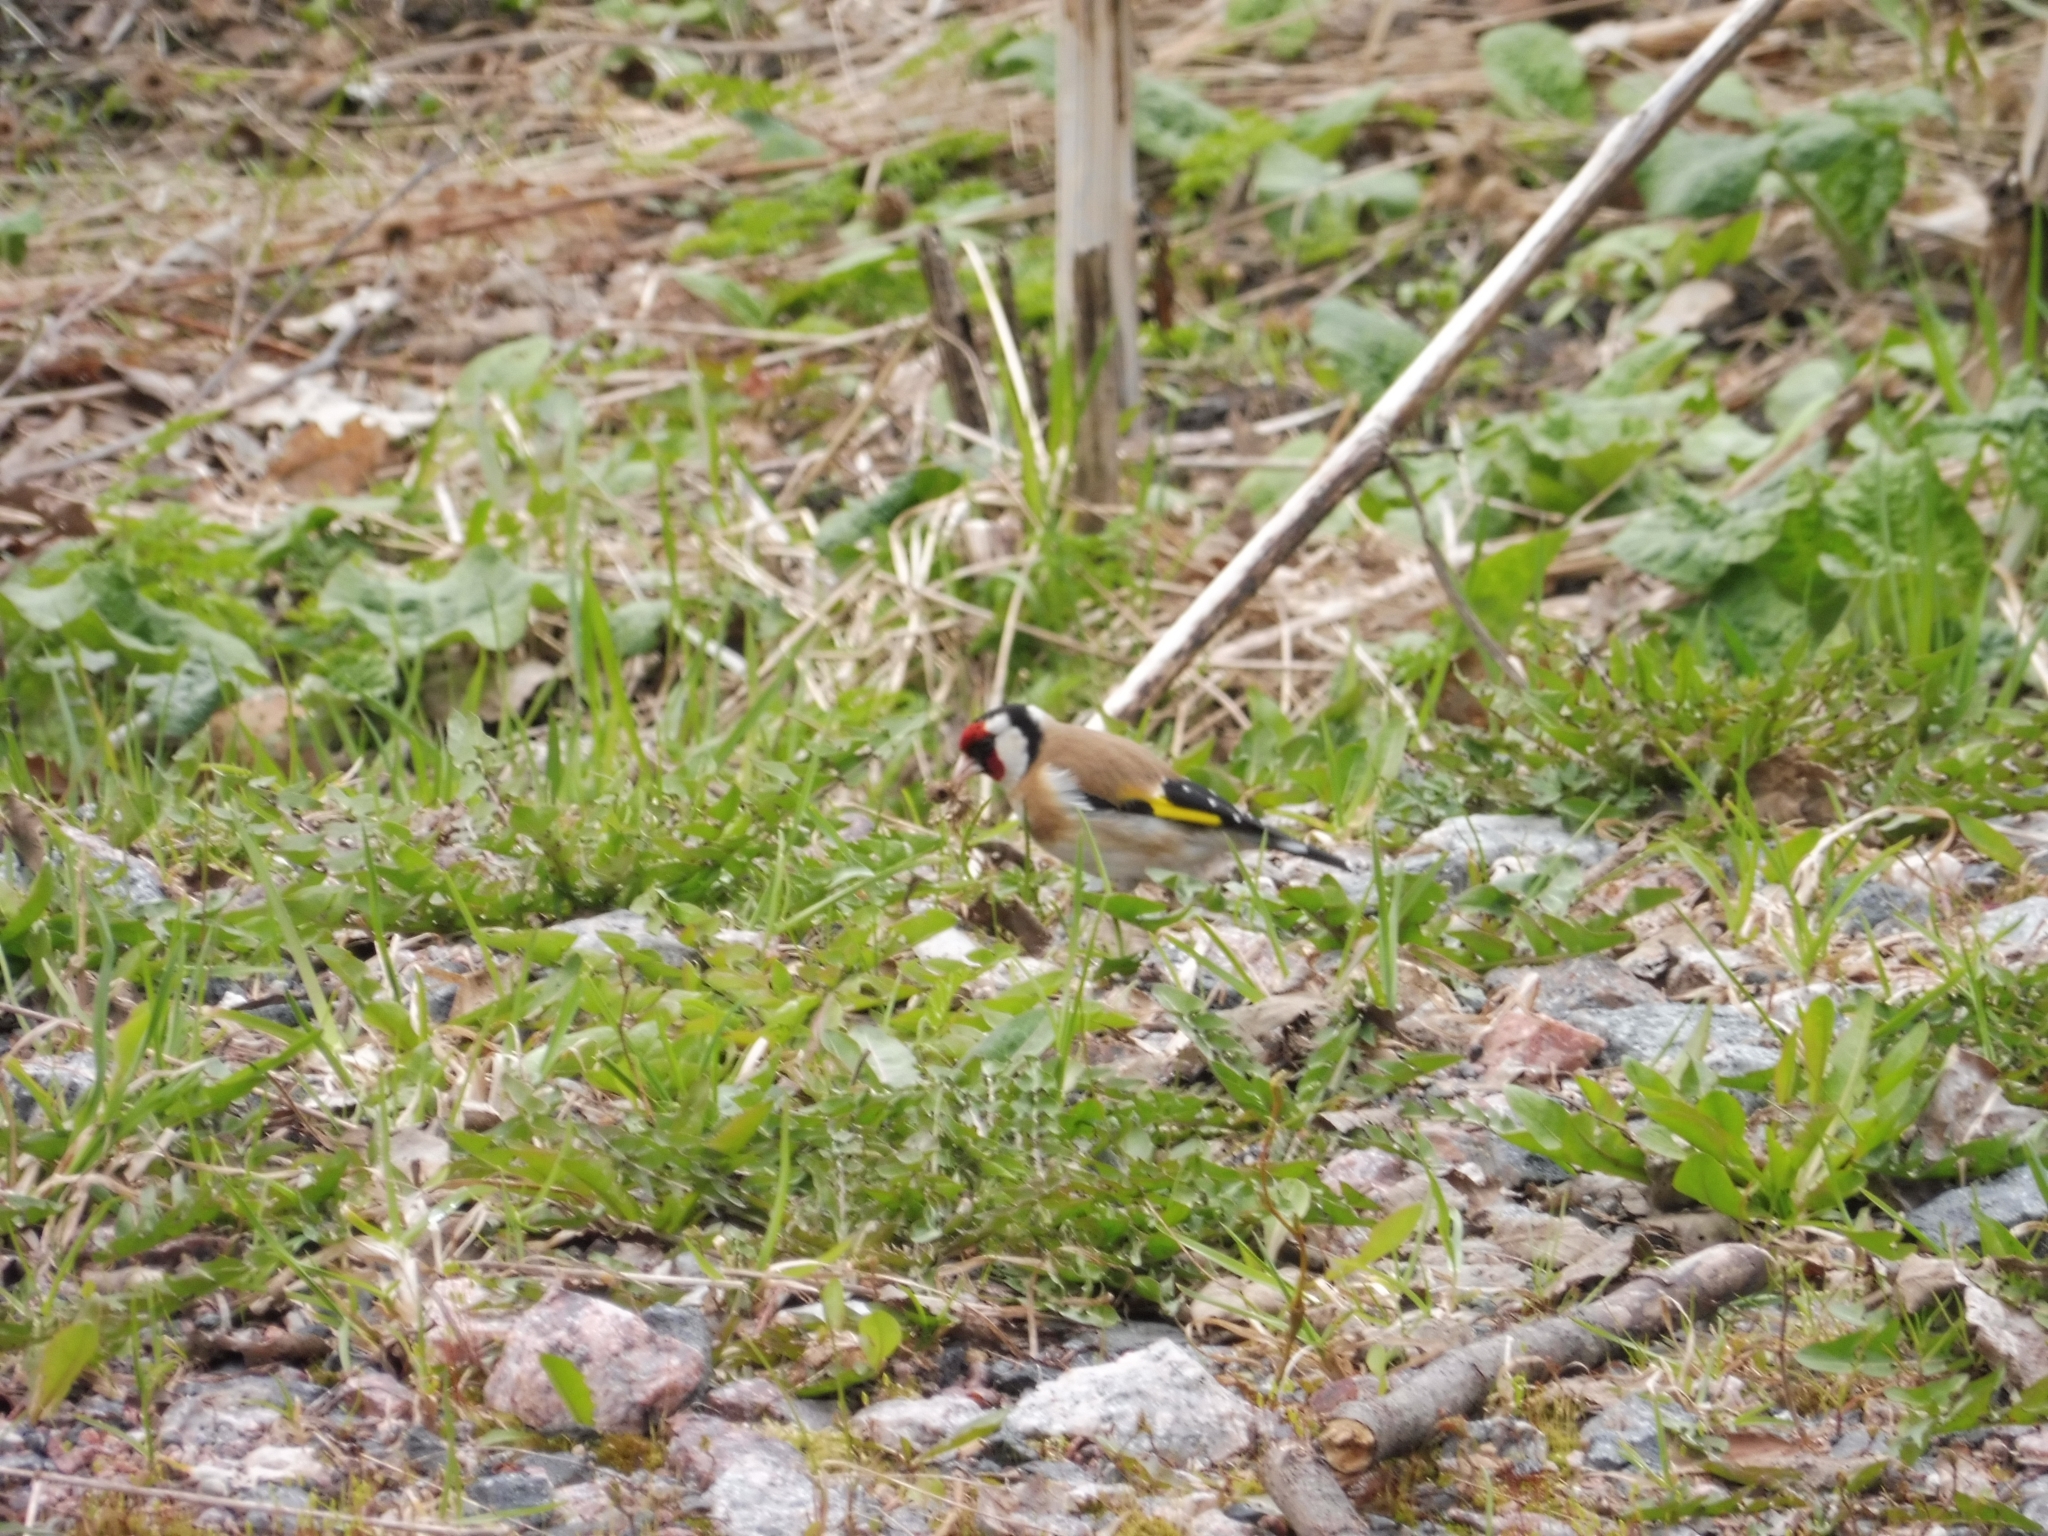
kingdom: Animalia
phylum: Chordata
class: Aves
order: Passeriformes
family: Fringillidae
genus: Carduelis
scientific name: Carduelis carduelis
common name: European goldfinch
